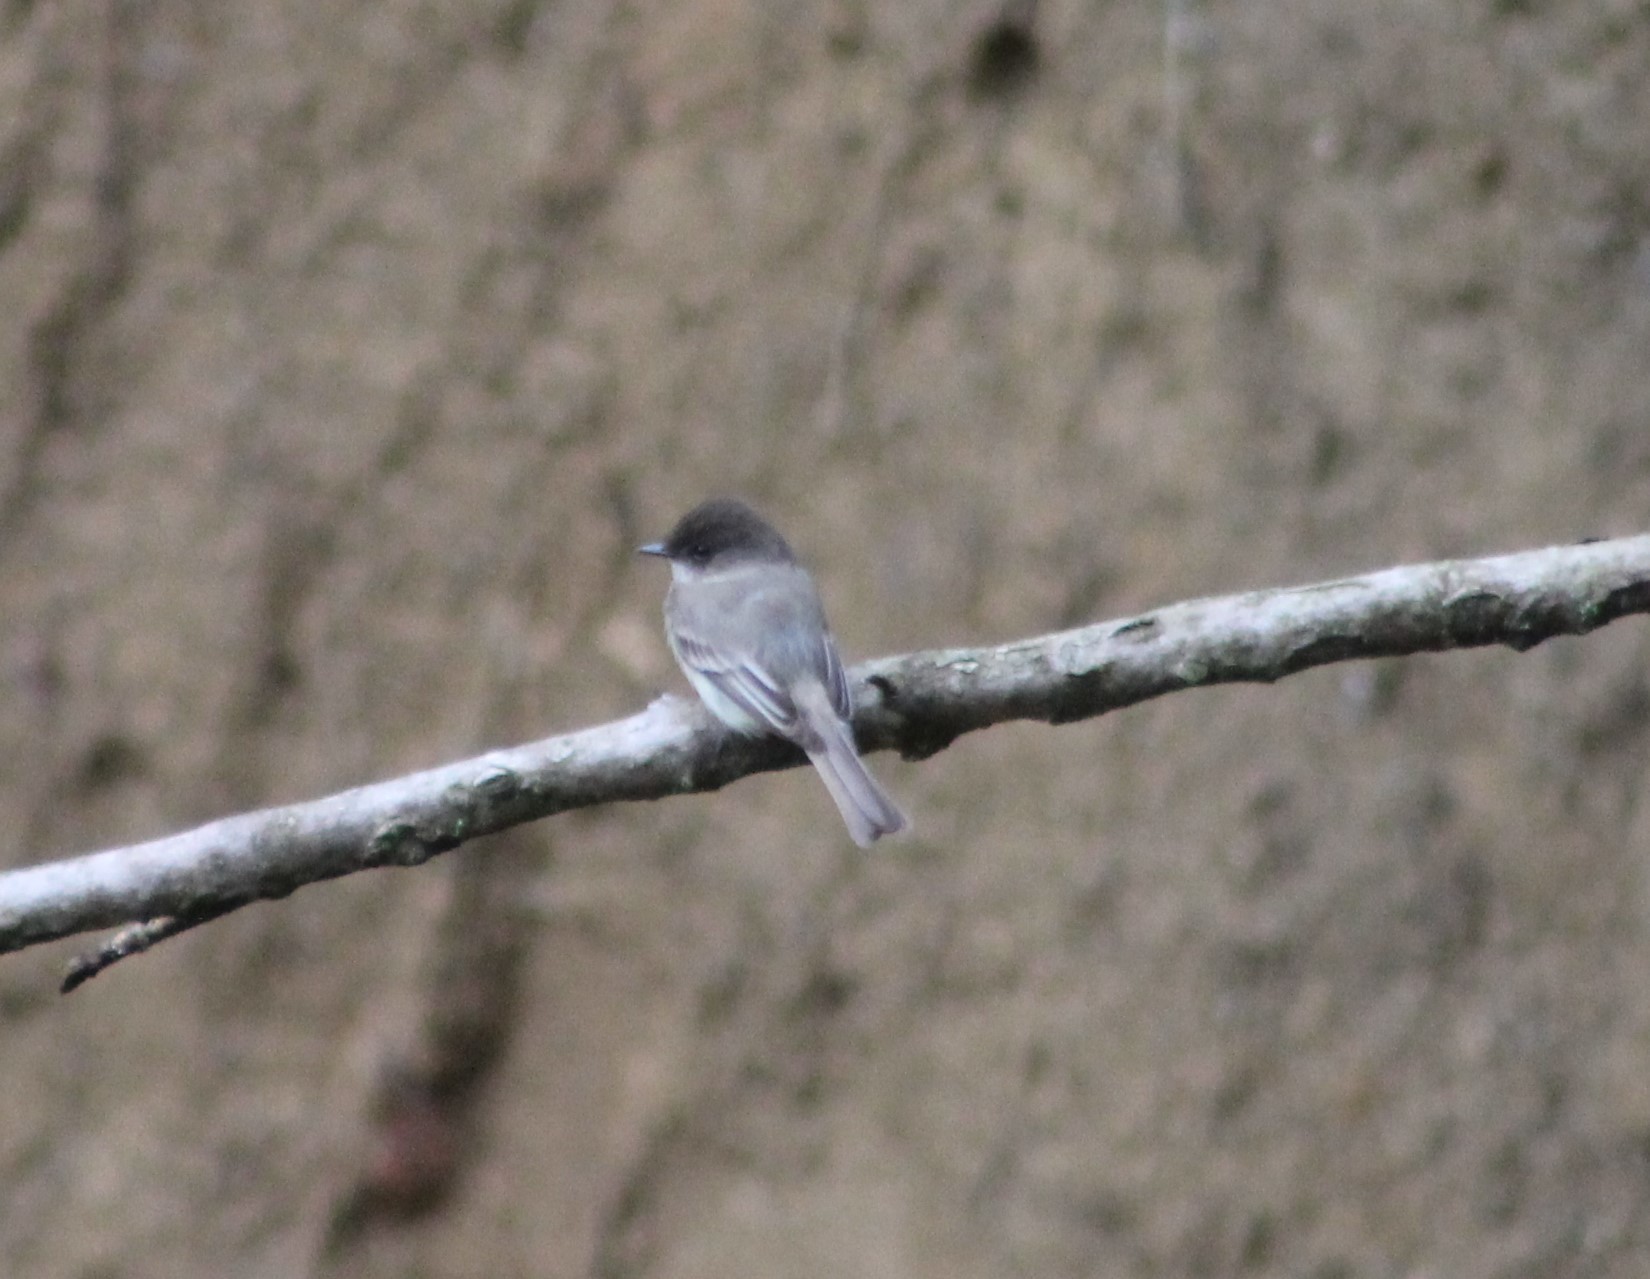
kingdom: Animalia
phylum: Chordata
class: Aves
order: Passeriformes
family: Tyrannidae
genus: Sayornis
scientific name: Sayornis phoebe
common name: Eastern phoebe
